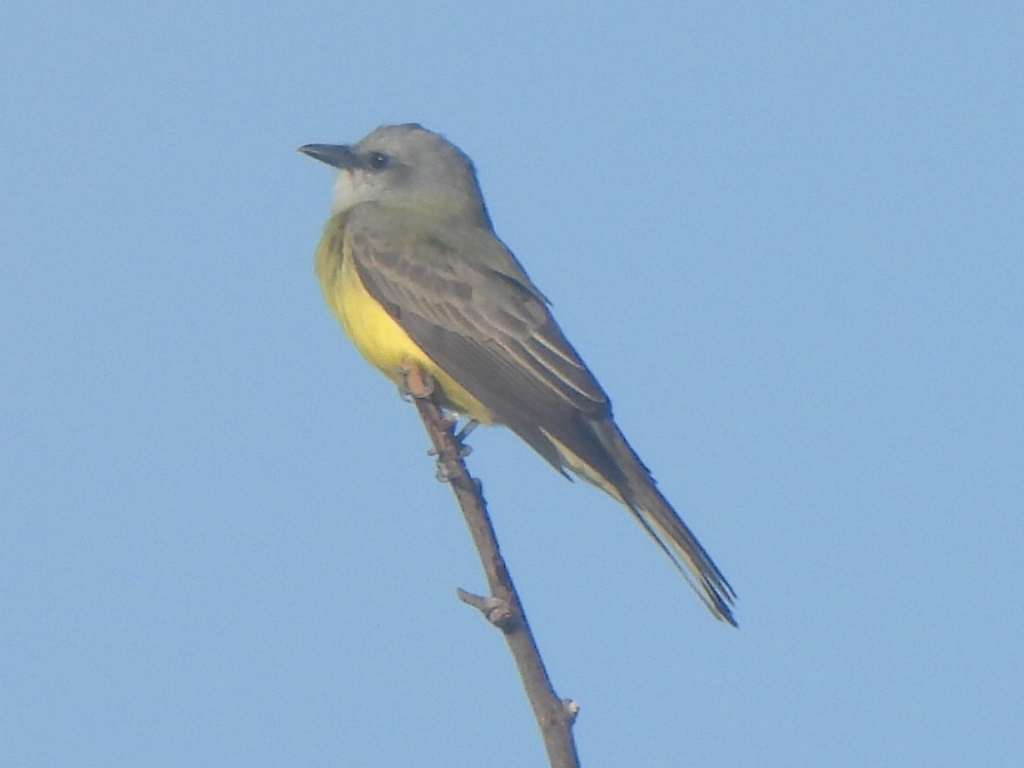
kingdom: Animalia
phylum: Chordata
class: Aves
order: Passeriformes
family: Tyrannidae
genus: Tyrannus
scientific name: Tyrannus couchii
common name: Couch's kingbird
